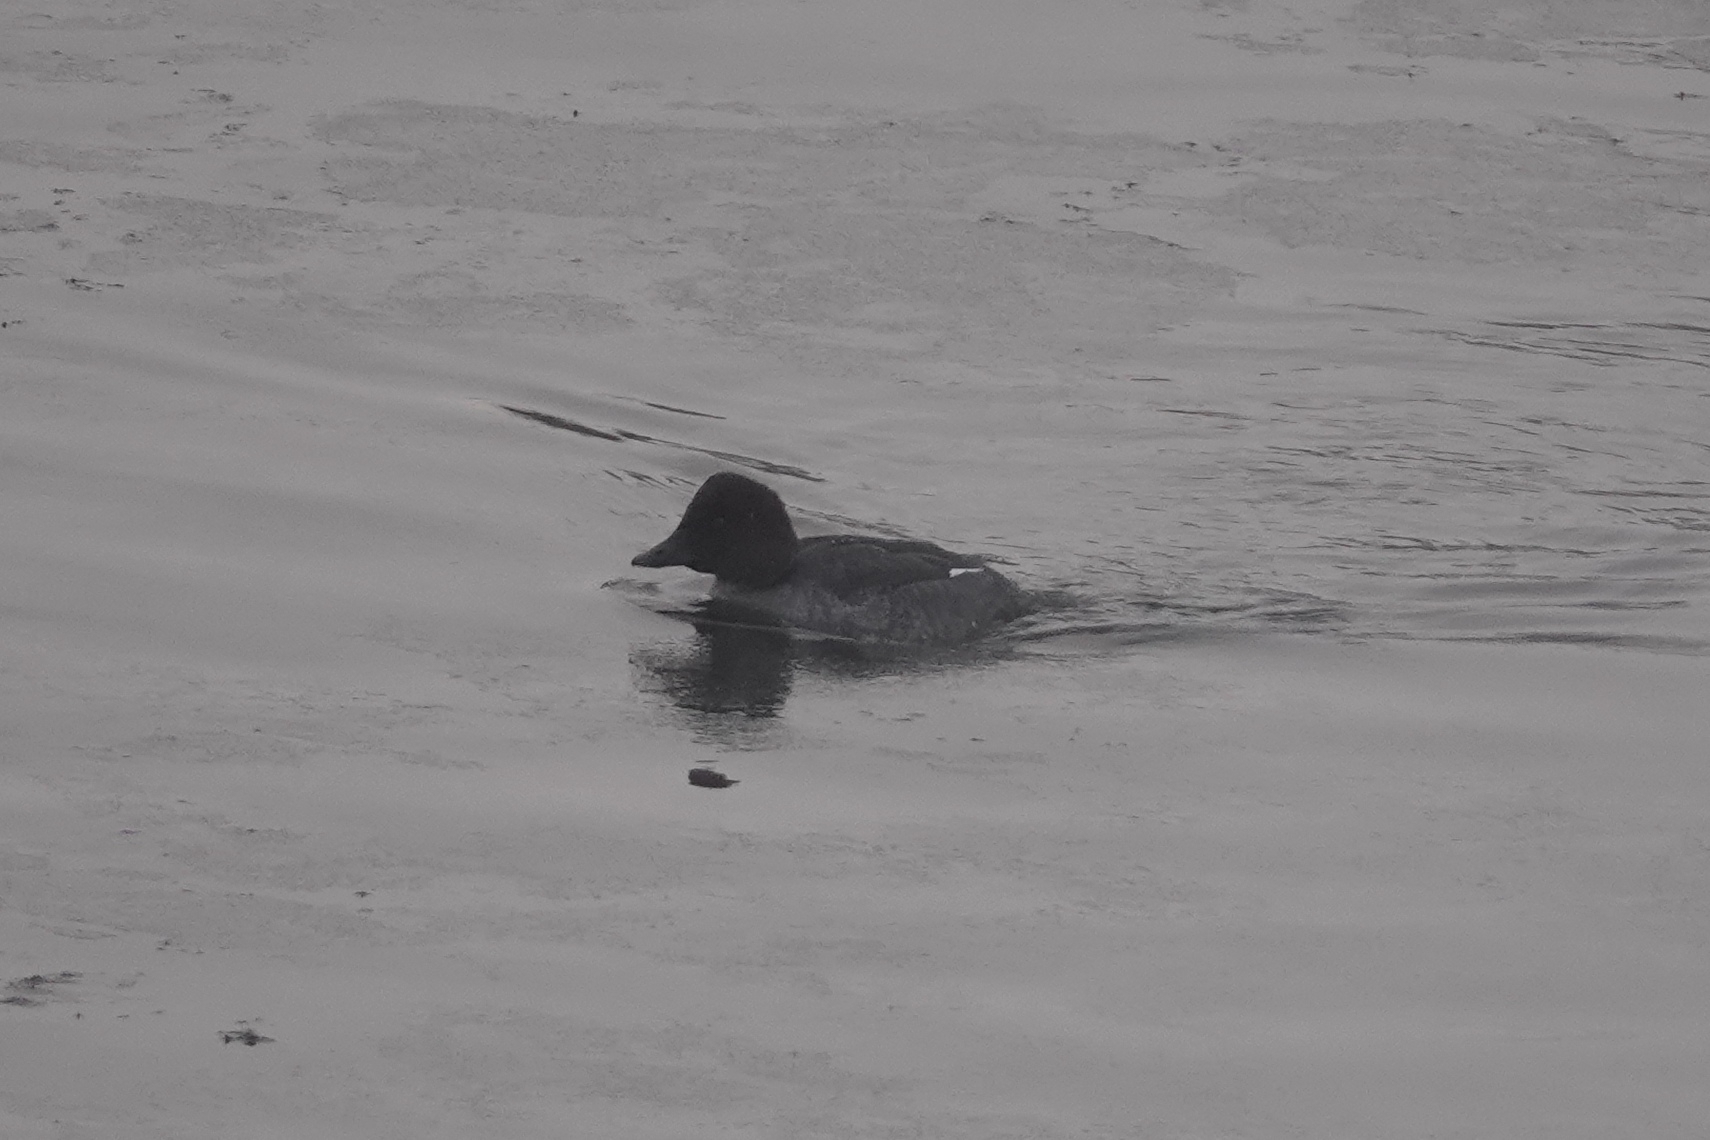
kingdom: Animalia
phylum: Chordata
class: Aves
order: Anseriformes
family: Anatidae
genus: Bucephala
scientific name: Bucephala clangula
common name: Common goldeneye
